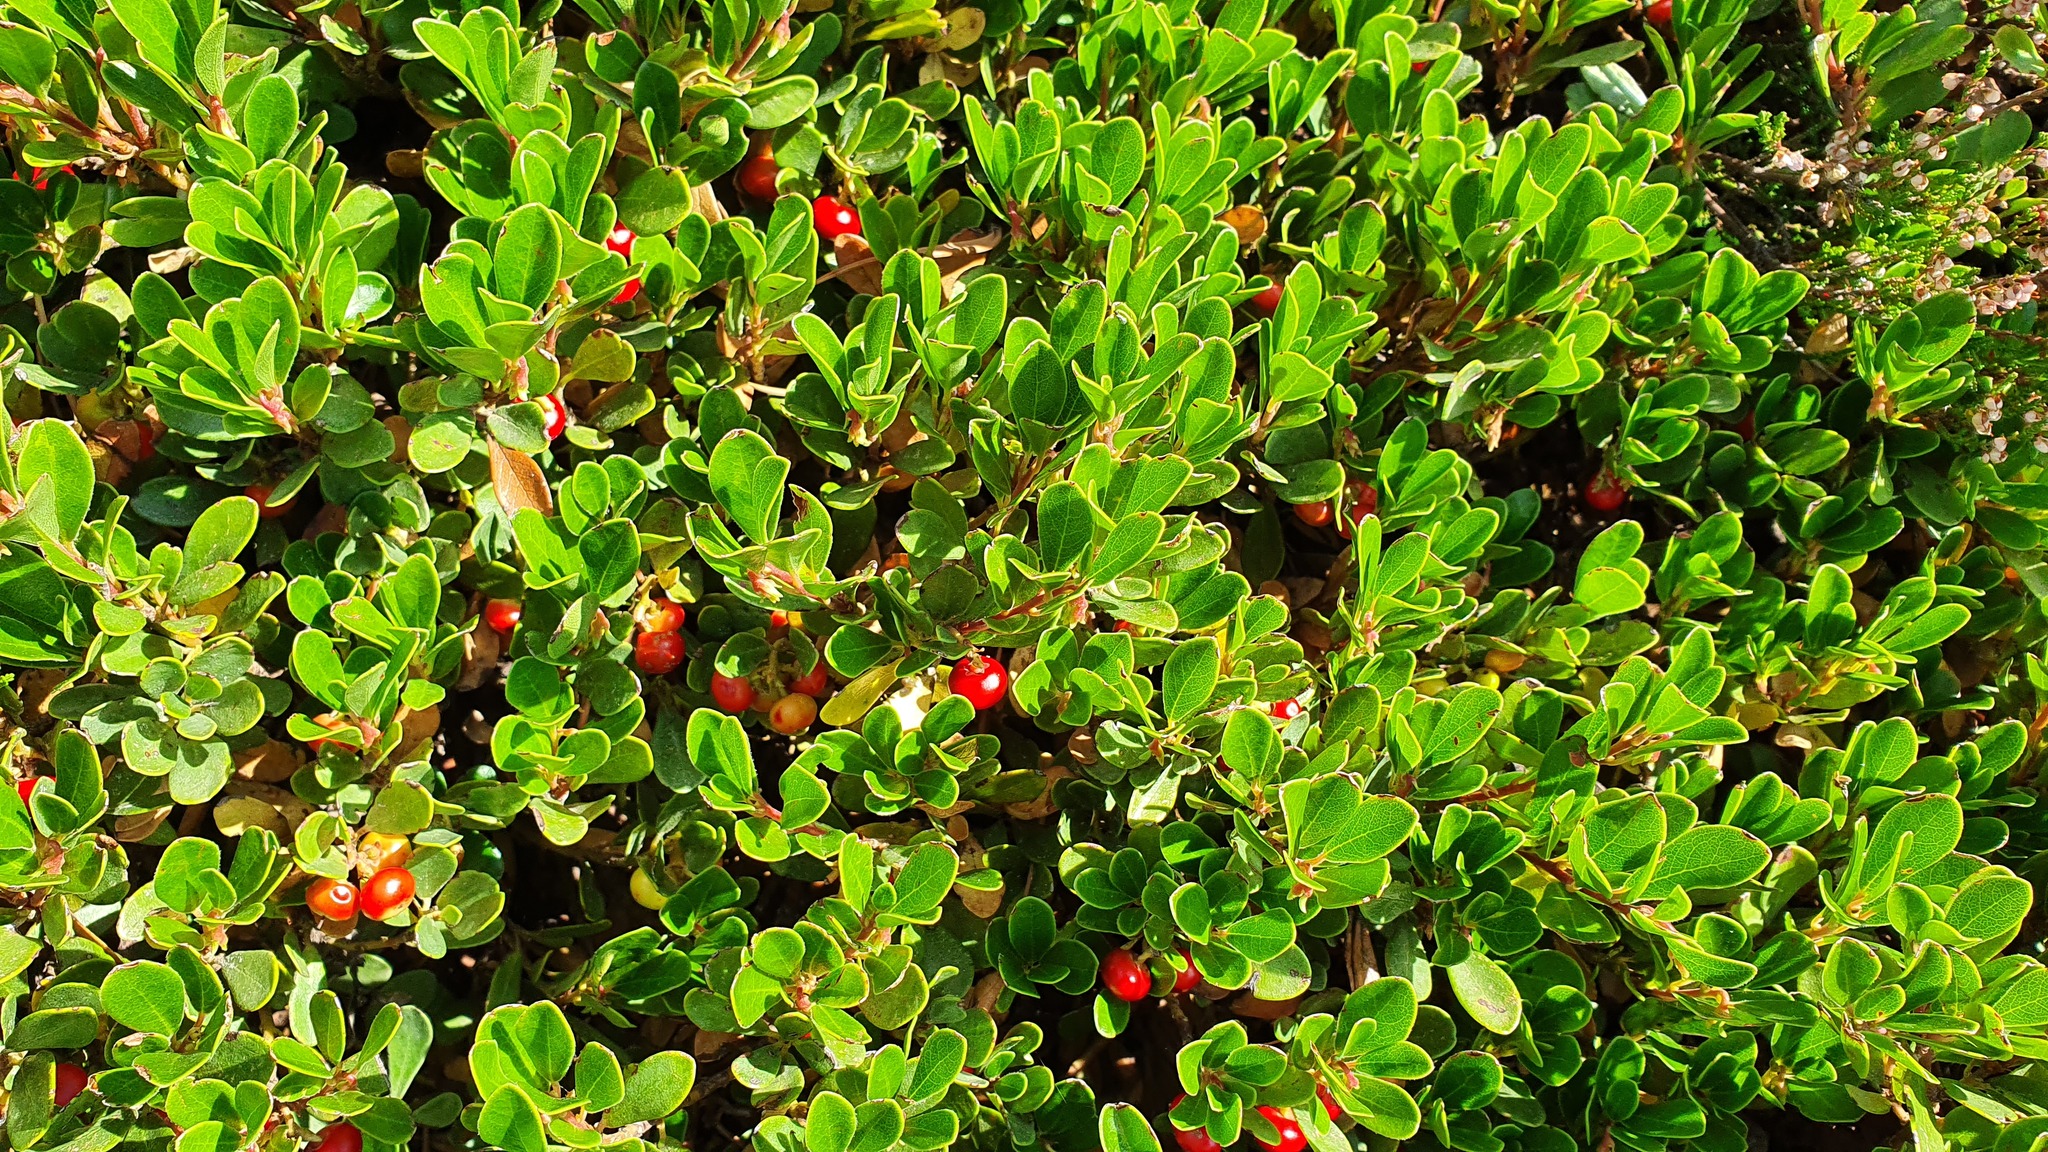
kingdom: Plantae
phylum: Tracheophyta
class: Magnoliopsida
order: Ericales
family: Ericaceae
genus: Arctostaphylos
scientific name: Arctostaphylos uva-ursi
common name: Bearberry
